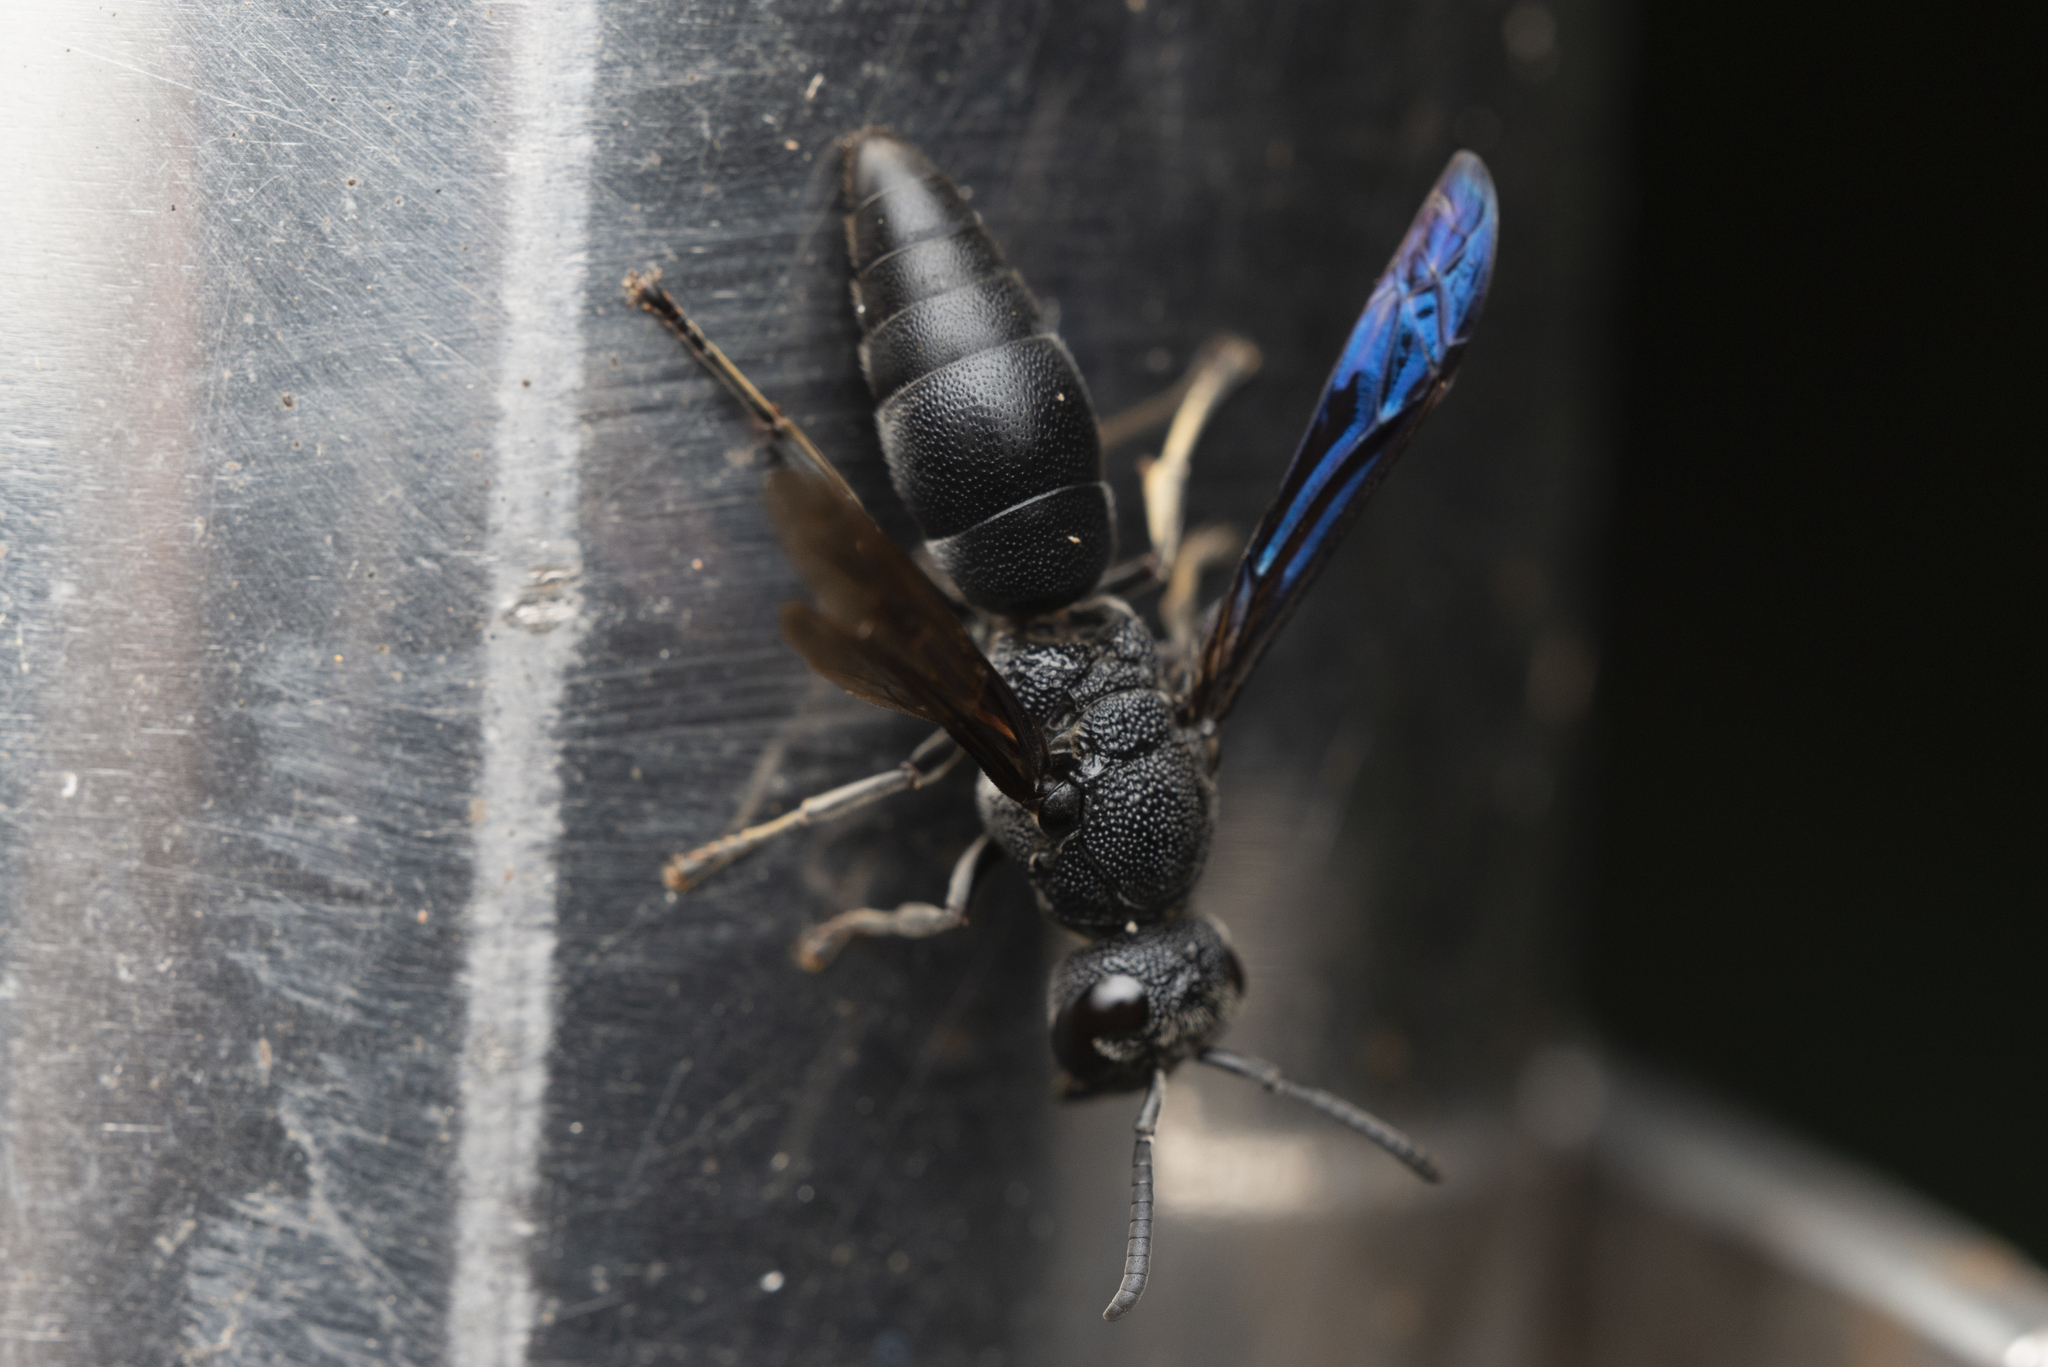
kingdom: Animalia
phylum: Arthropoda
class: Insecta
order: Hymenoptera
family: Eumenidae
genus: Allorhynchium
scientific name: Allorhynchium chinense
